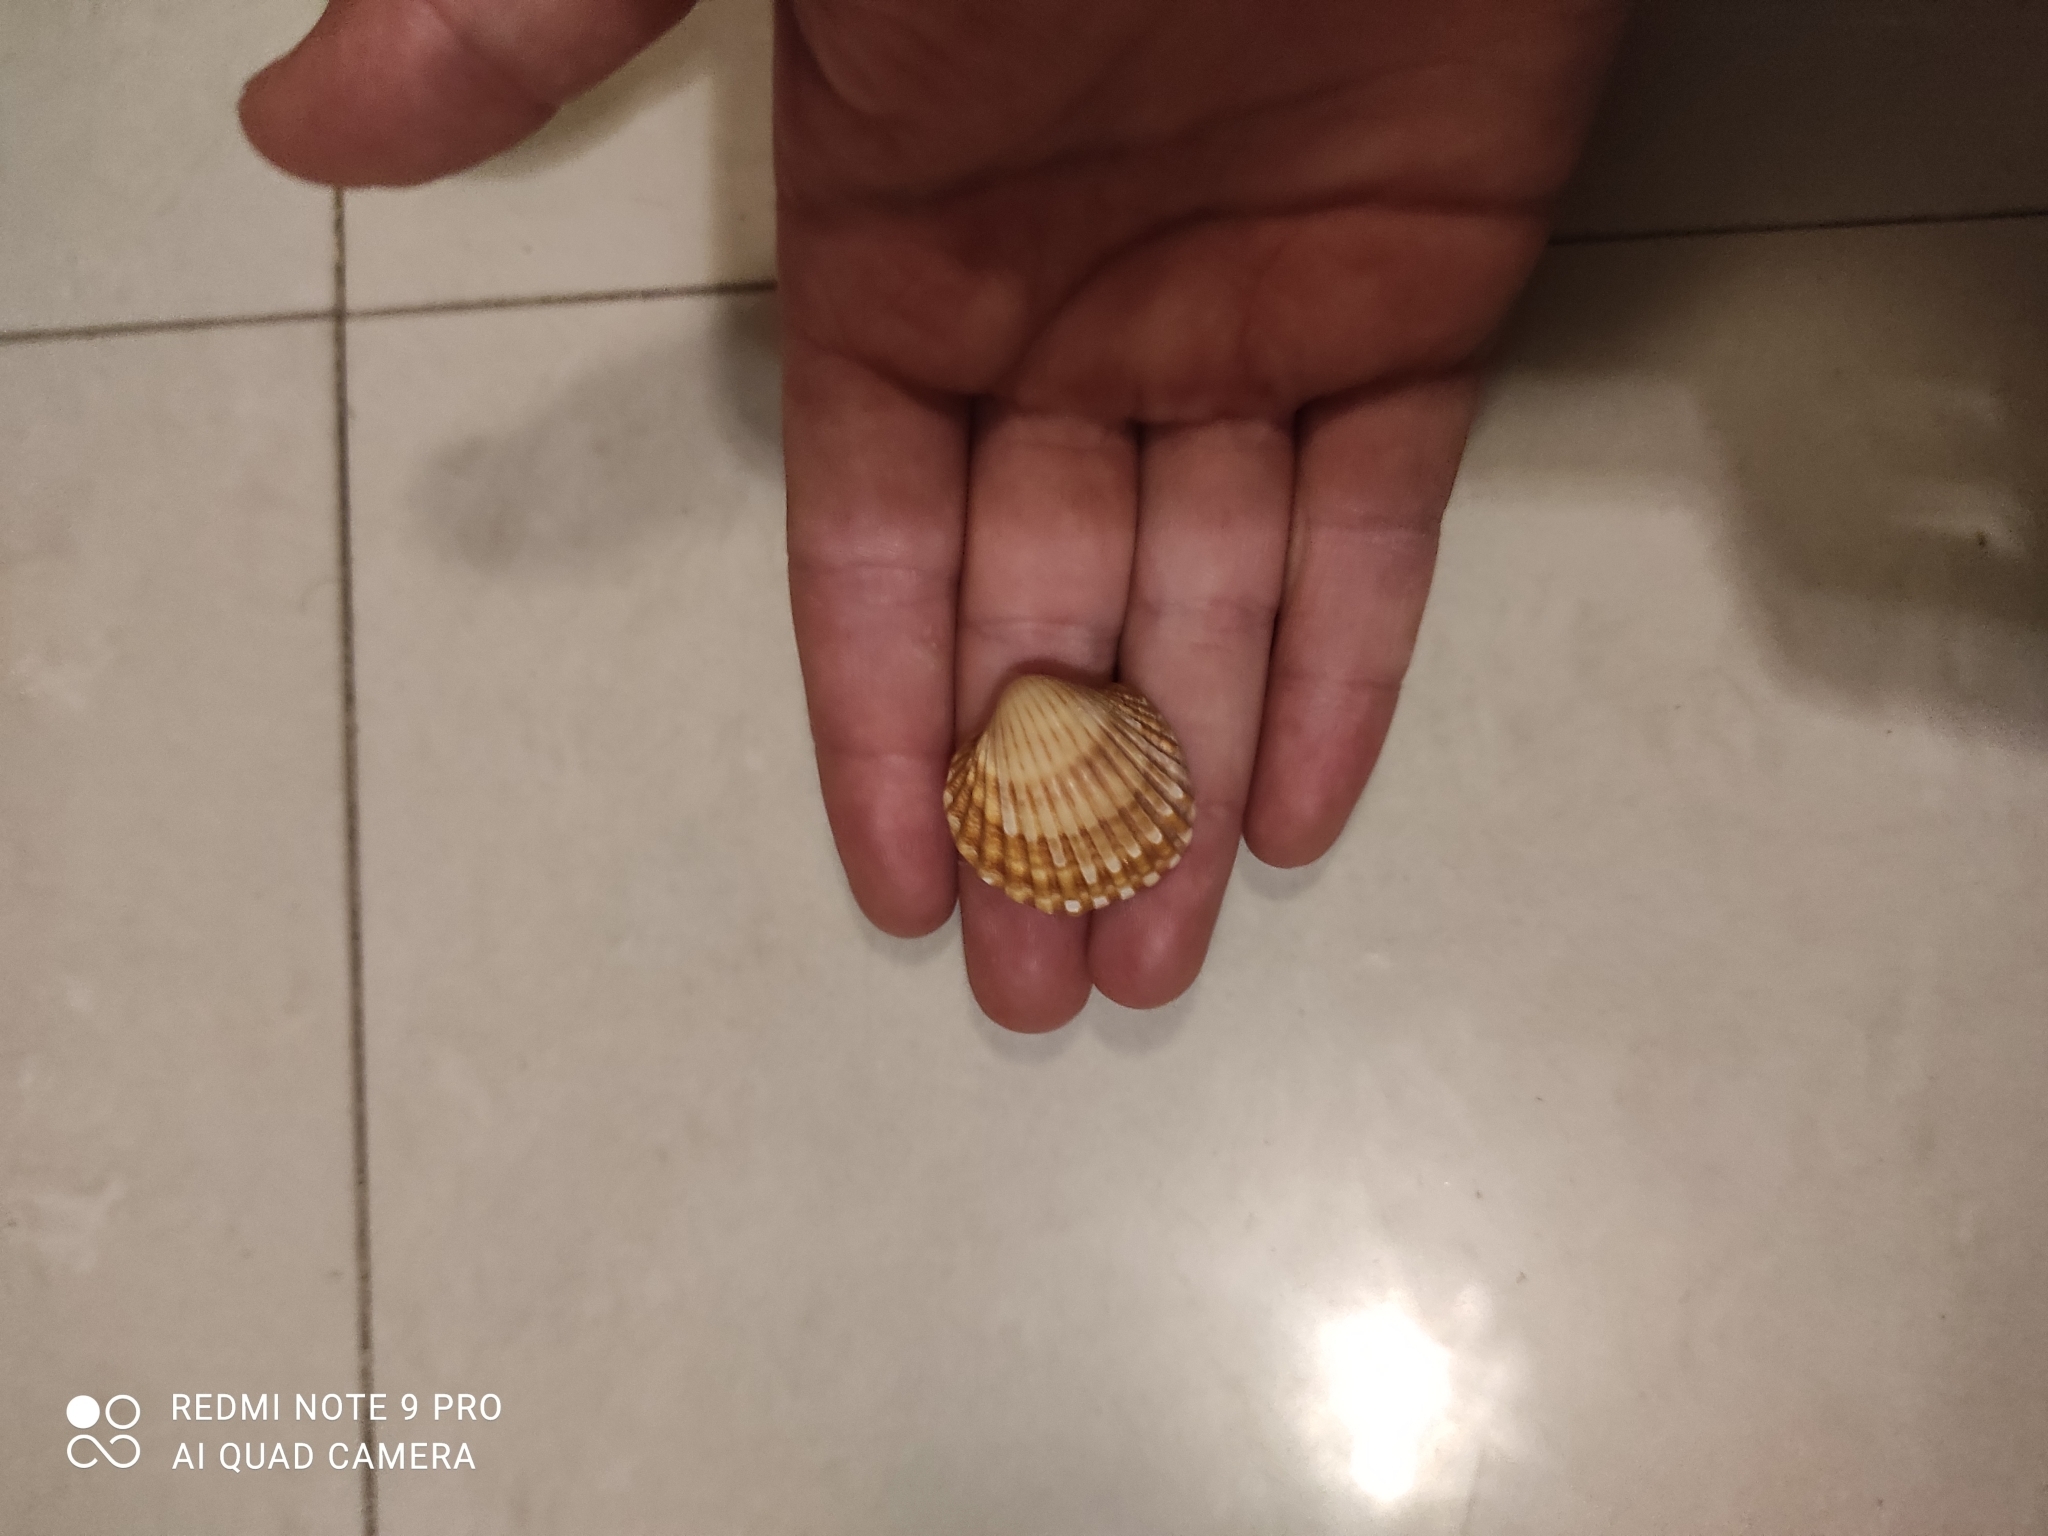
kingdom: Animalia
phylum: Mollusca
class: Bivalvia
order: Cardiida
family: Cardiidae
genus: Acanthocardia
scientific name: Acanthocardia tuberculata
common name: Rough cockle
